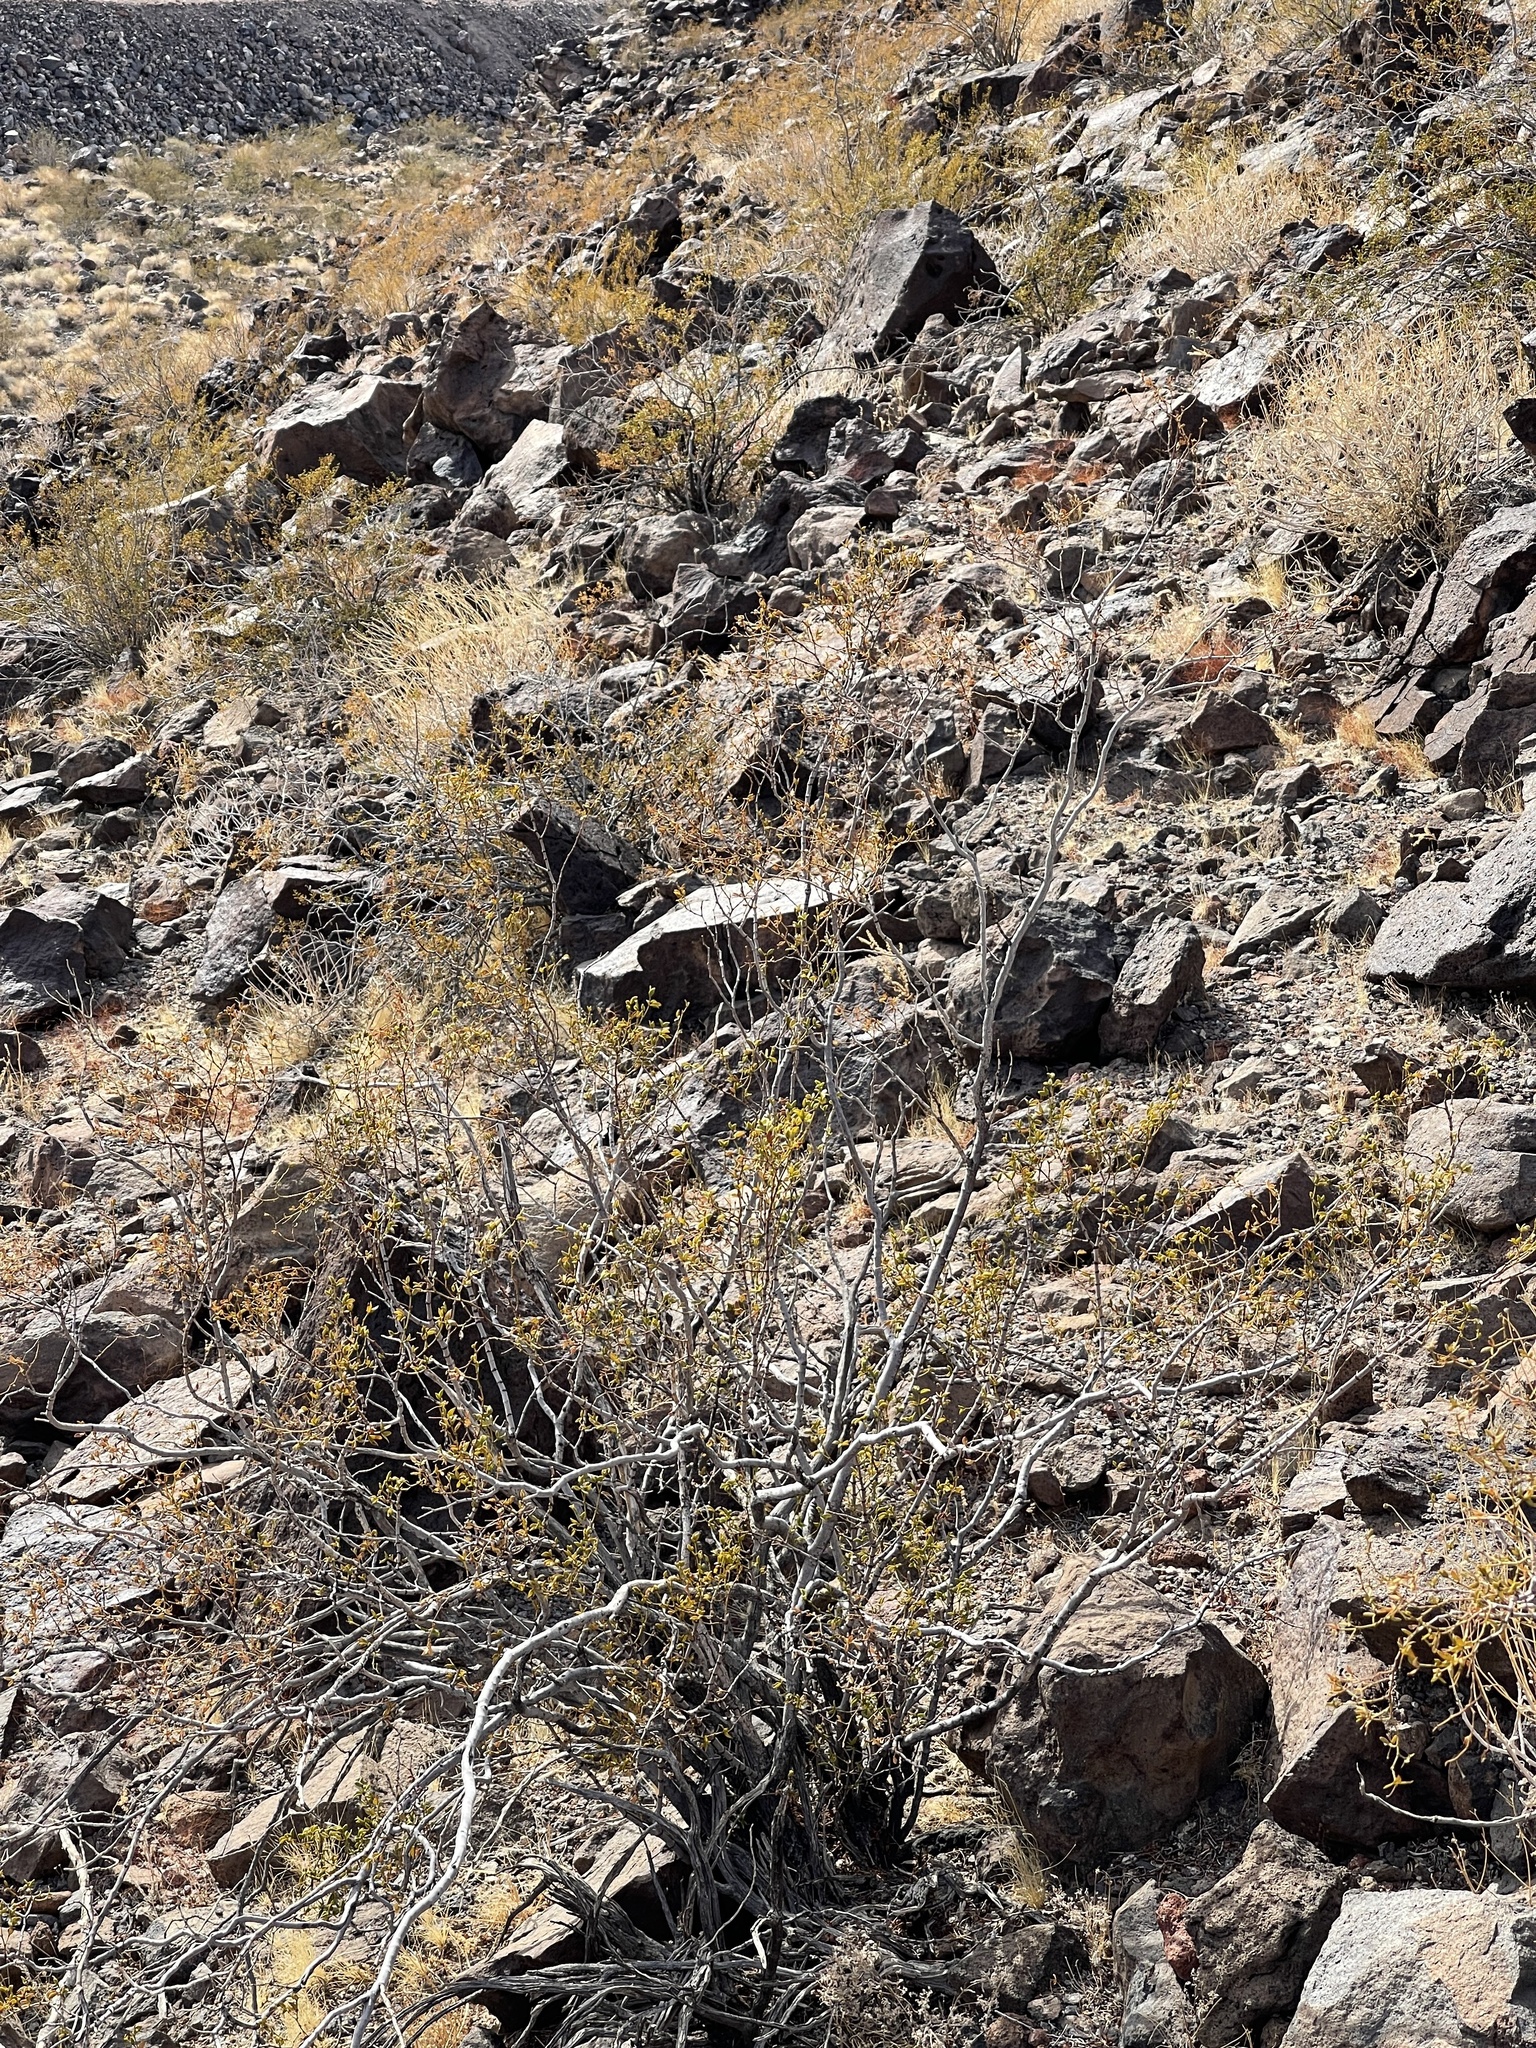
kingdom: Plantae
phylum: Tracheophyta
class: Magnoliopsida
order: Zygophyllales
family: Zygophyllaceae
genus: Larrea
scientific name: Larrea tridentata
